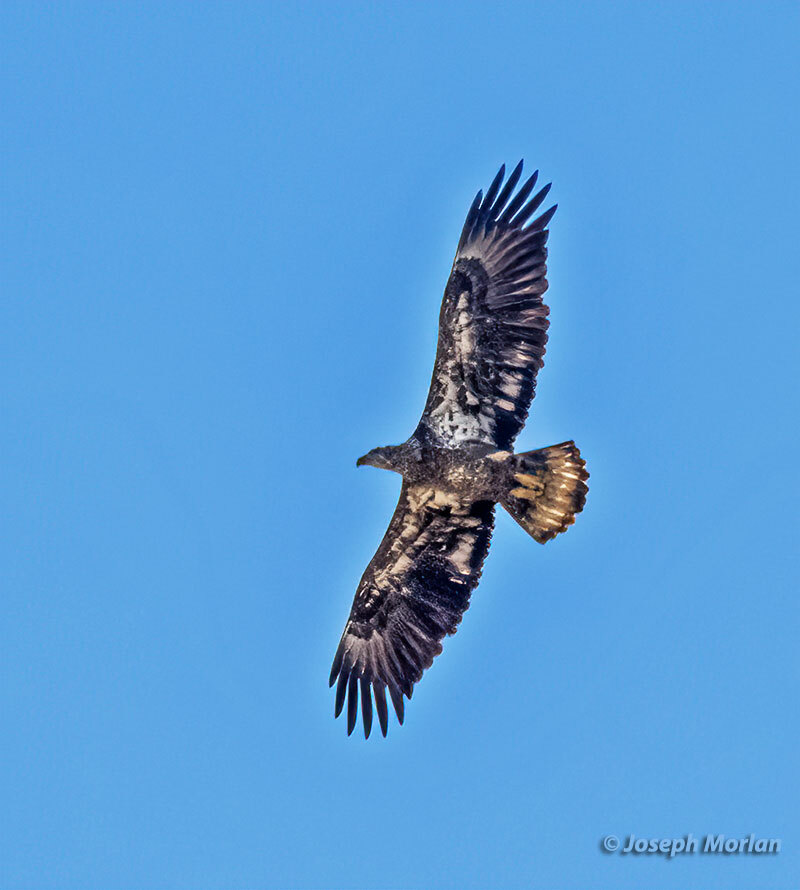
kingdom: Animalia
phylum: Chordata
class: Aves
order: Accipitriformes
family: Accipitridae
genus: Haliaeetus
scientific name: Haliaeetus leucocephalus
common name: Bald eagle
